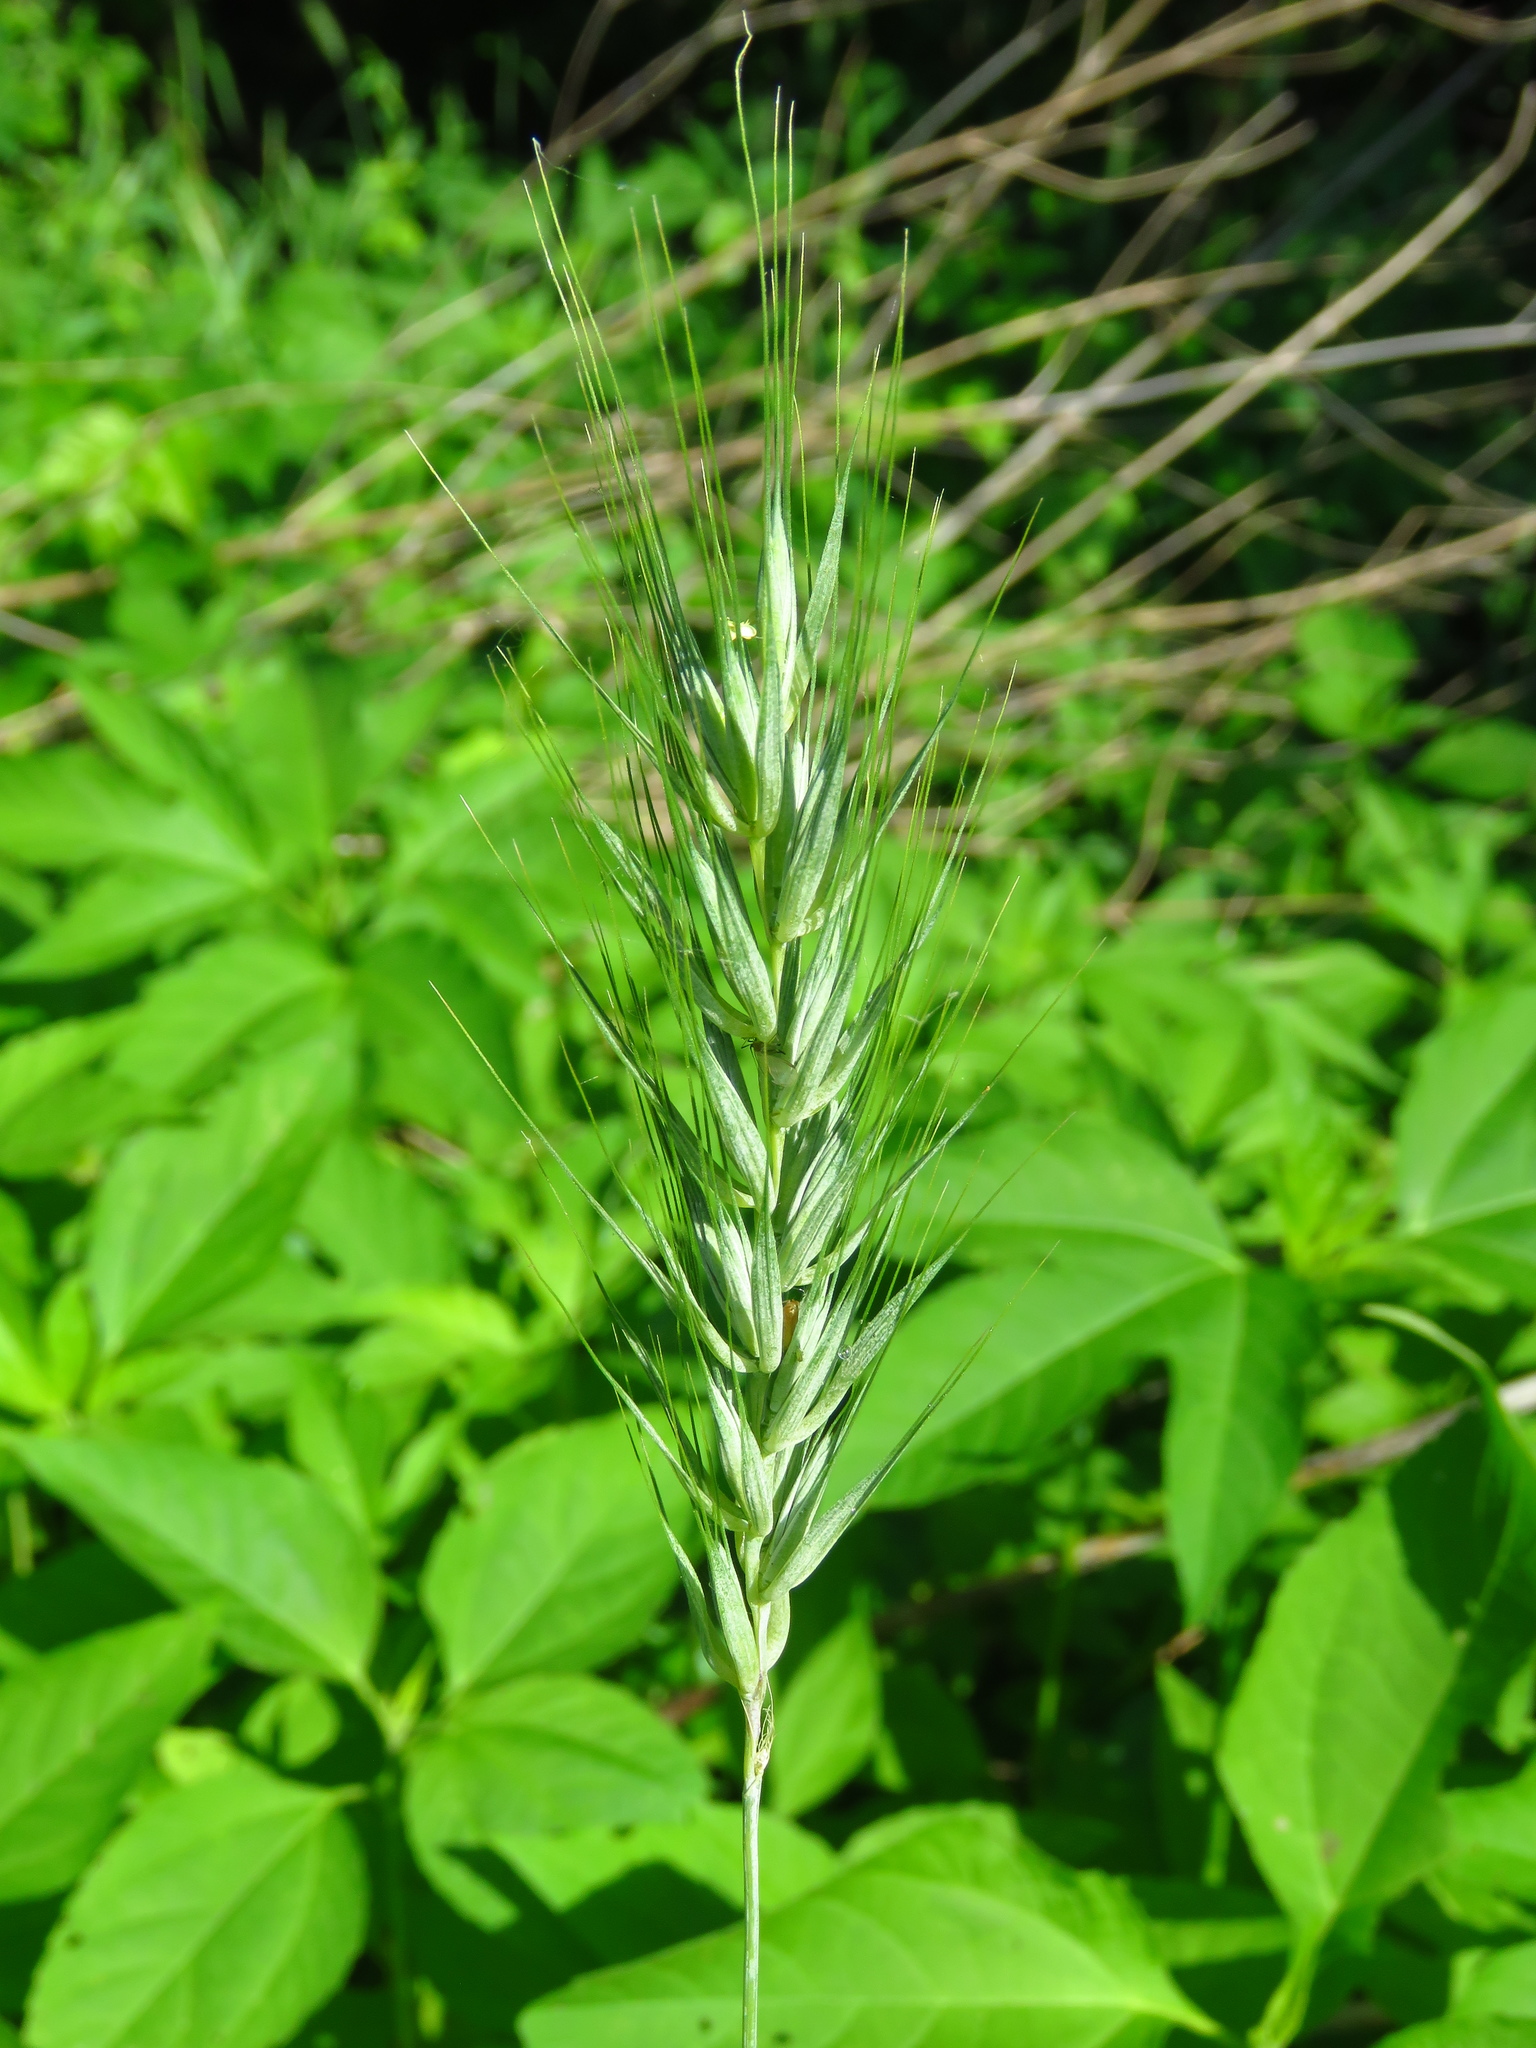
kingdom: Plantae
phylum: Tracheophyta
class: Liliopsida
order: Poales
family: Poaceae
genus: Elymus
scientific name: Elymus virginicus
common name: Common eastern wildrye
